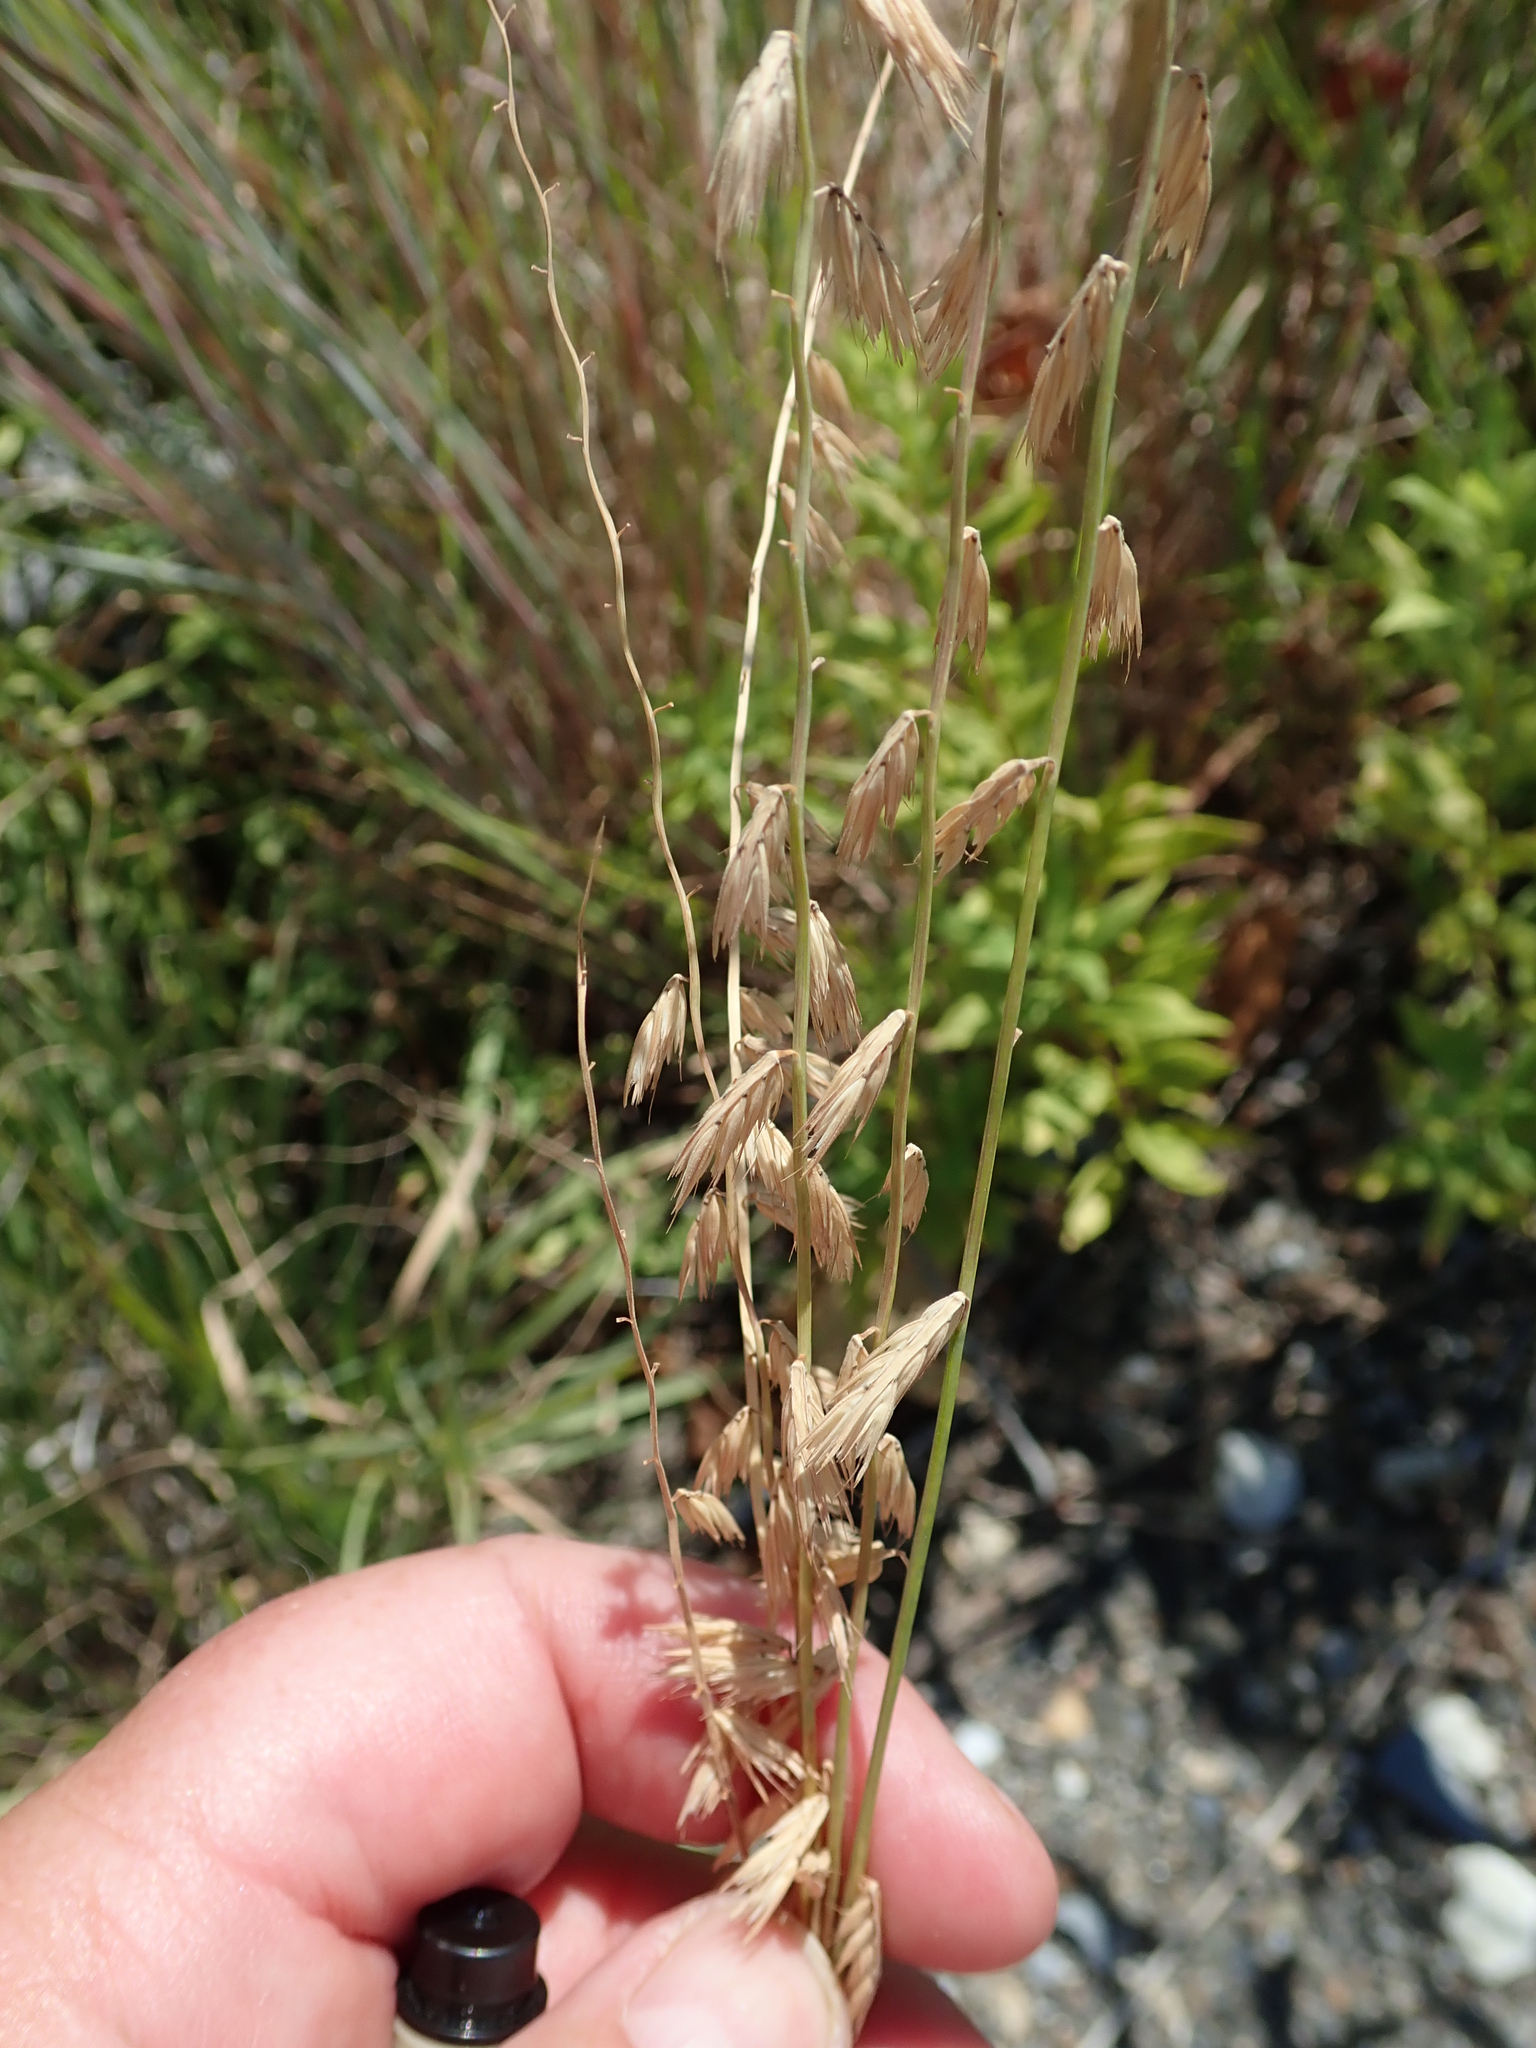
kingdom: Plantae
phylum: Tracheophyta
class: Liliopsida
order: Poales
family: Poaceae
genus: Bouteloua
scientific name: Bouteloua curtipendula
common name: Side-oats grama
